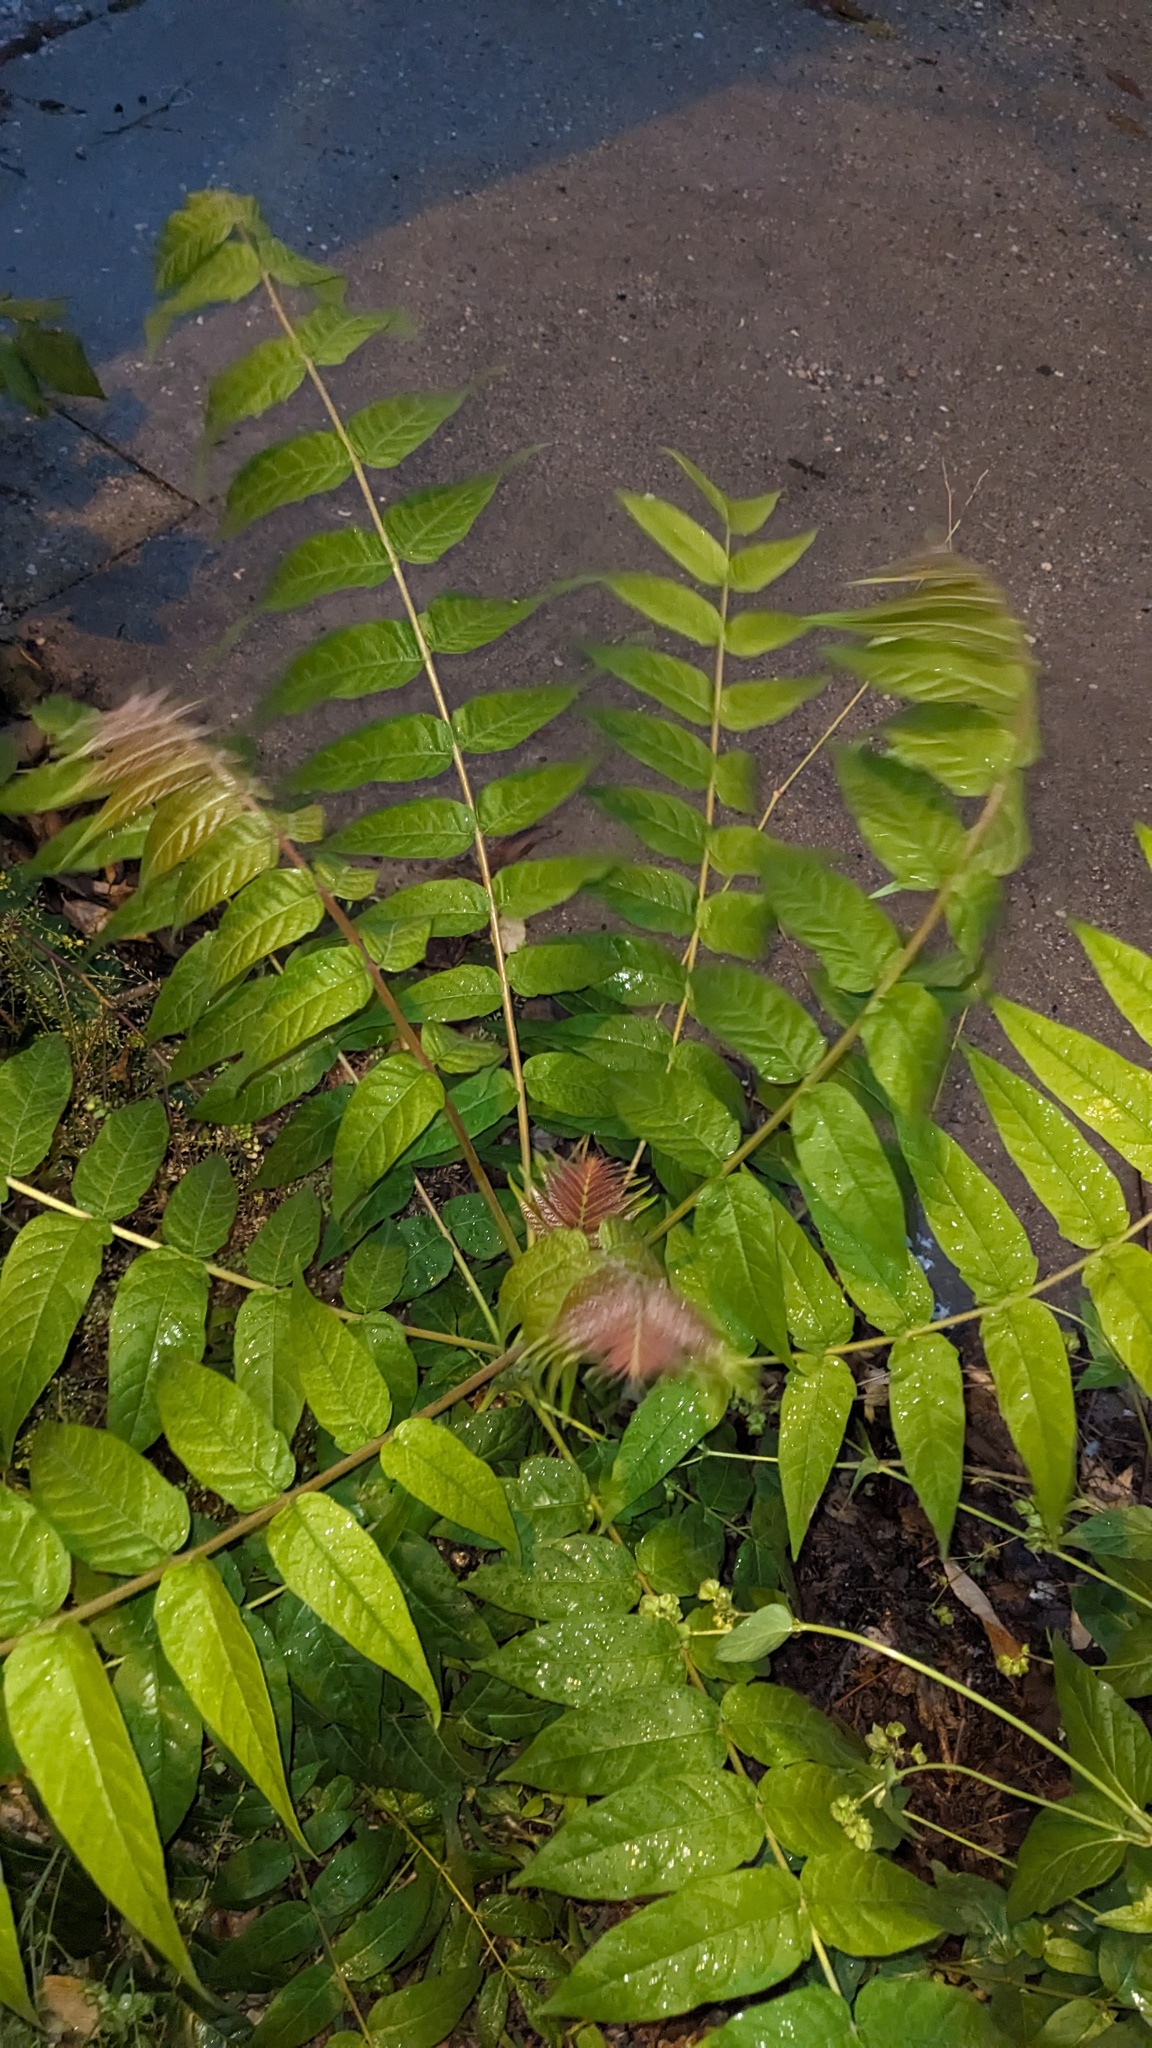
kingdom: Plantae
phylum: Tracheophyta
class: Magnoliopsida
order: Sapindales
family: Simaroubaceae
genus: Ailanthus
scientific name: Ailanthus altissima
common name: Tree-of-heaven
